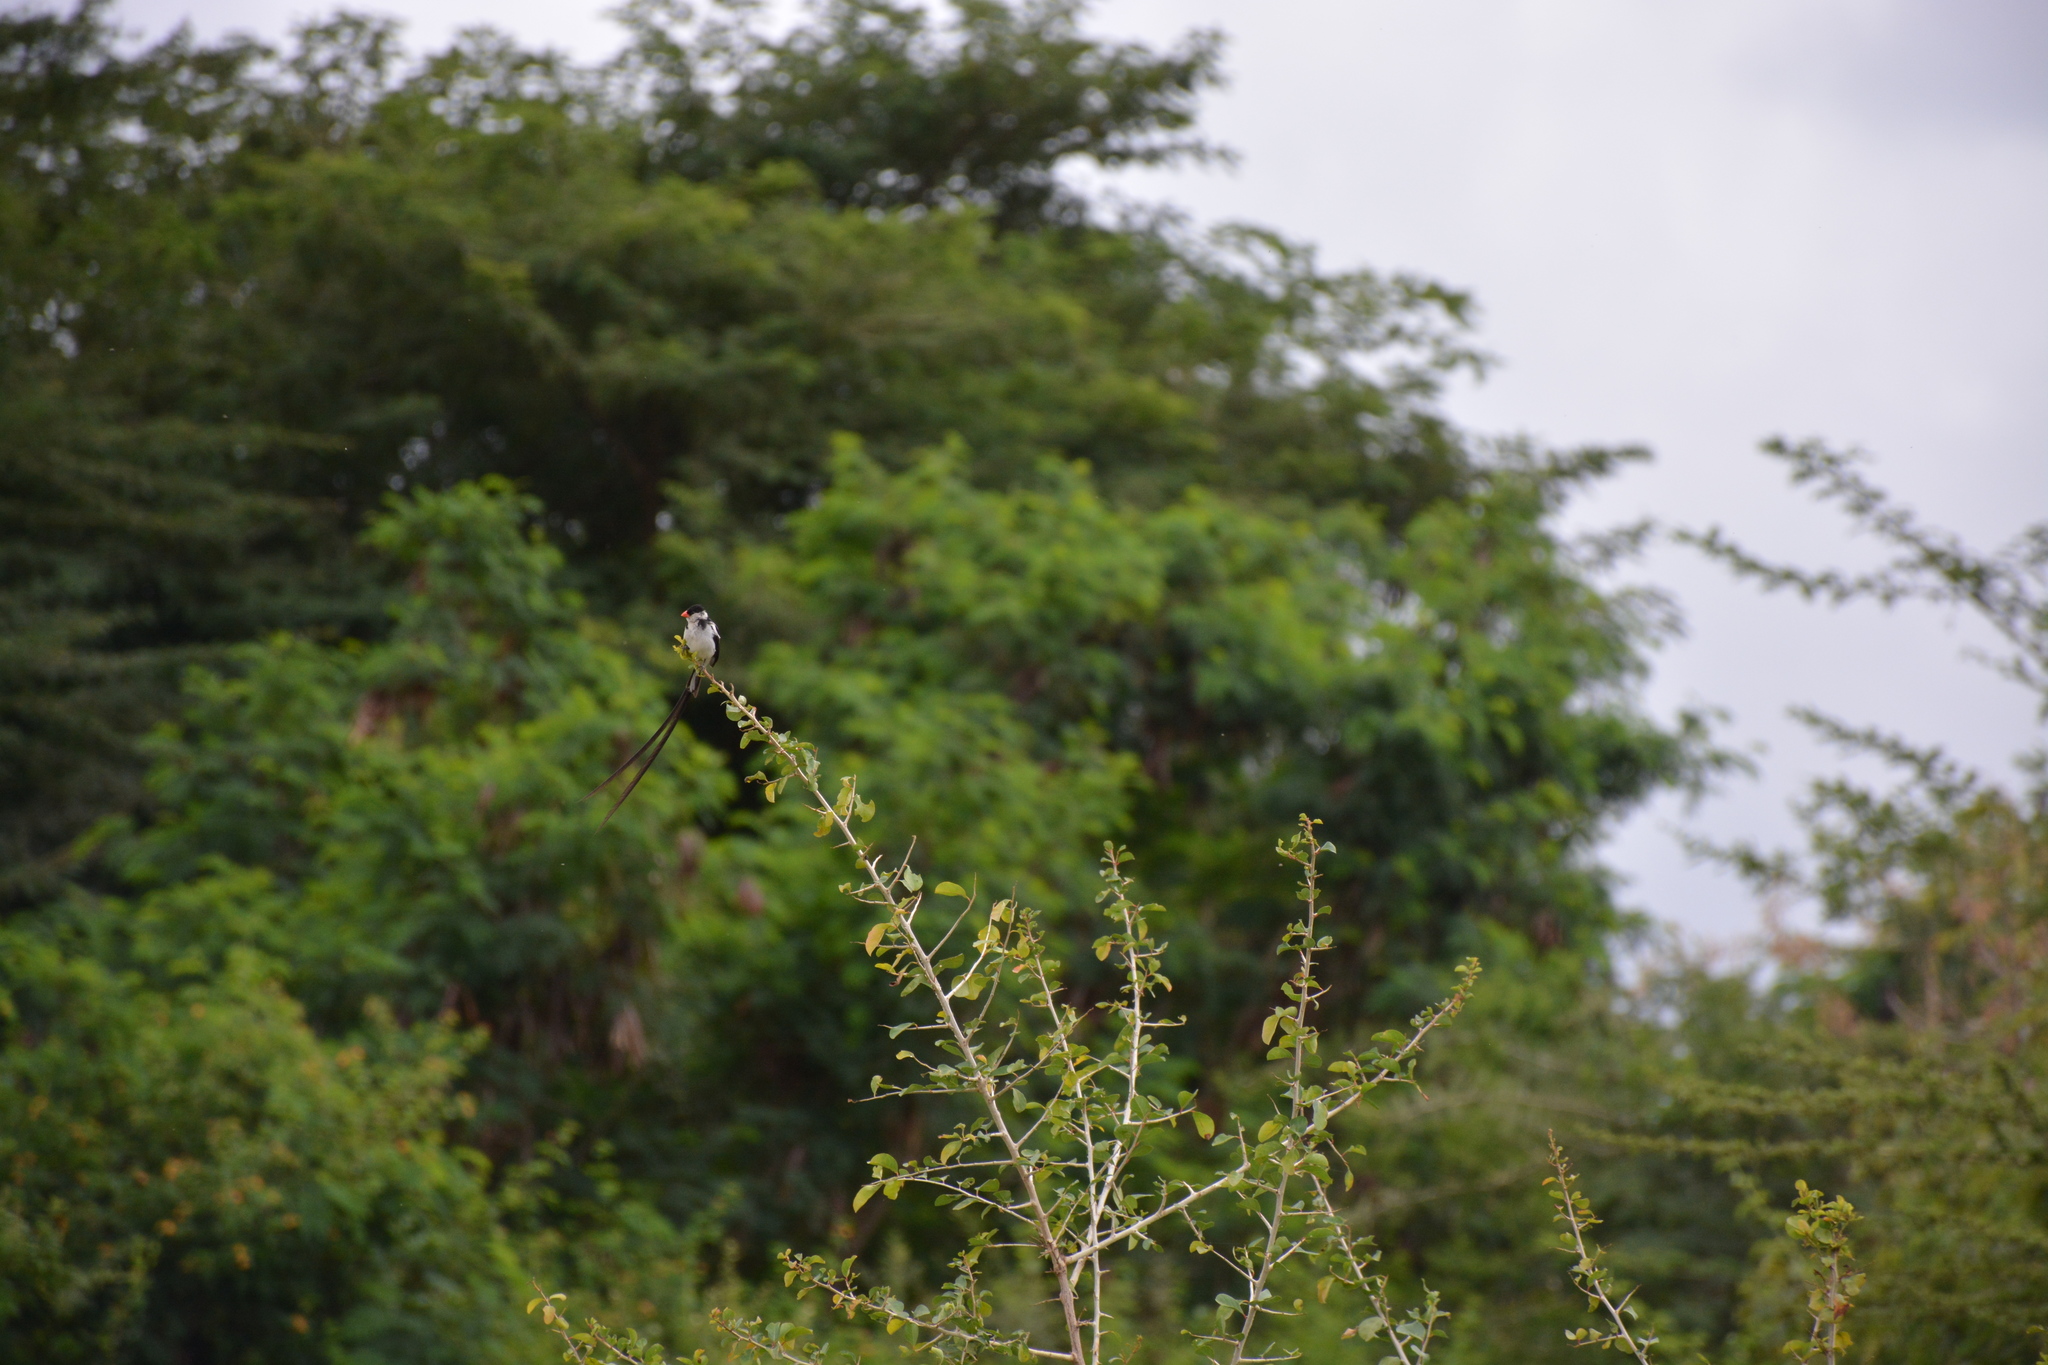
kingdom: Animalia
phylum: Chordata
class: Aves
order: Passeriformes
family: Viduidae
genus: Vidua
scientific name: Vidua macroura
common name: Pin-tailed whydah
